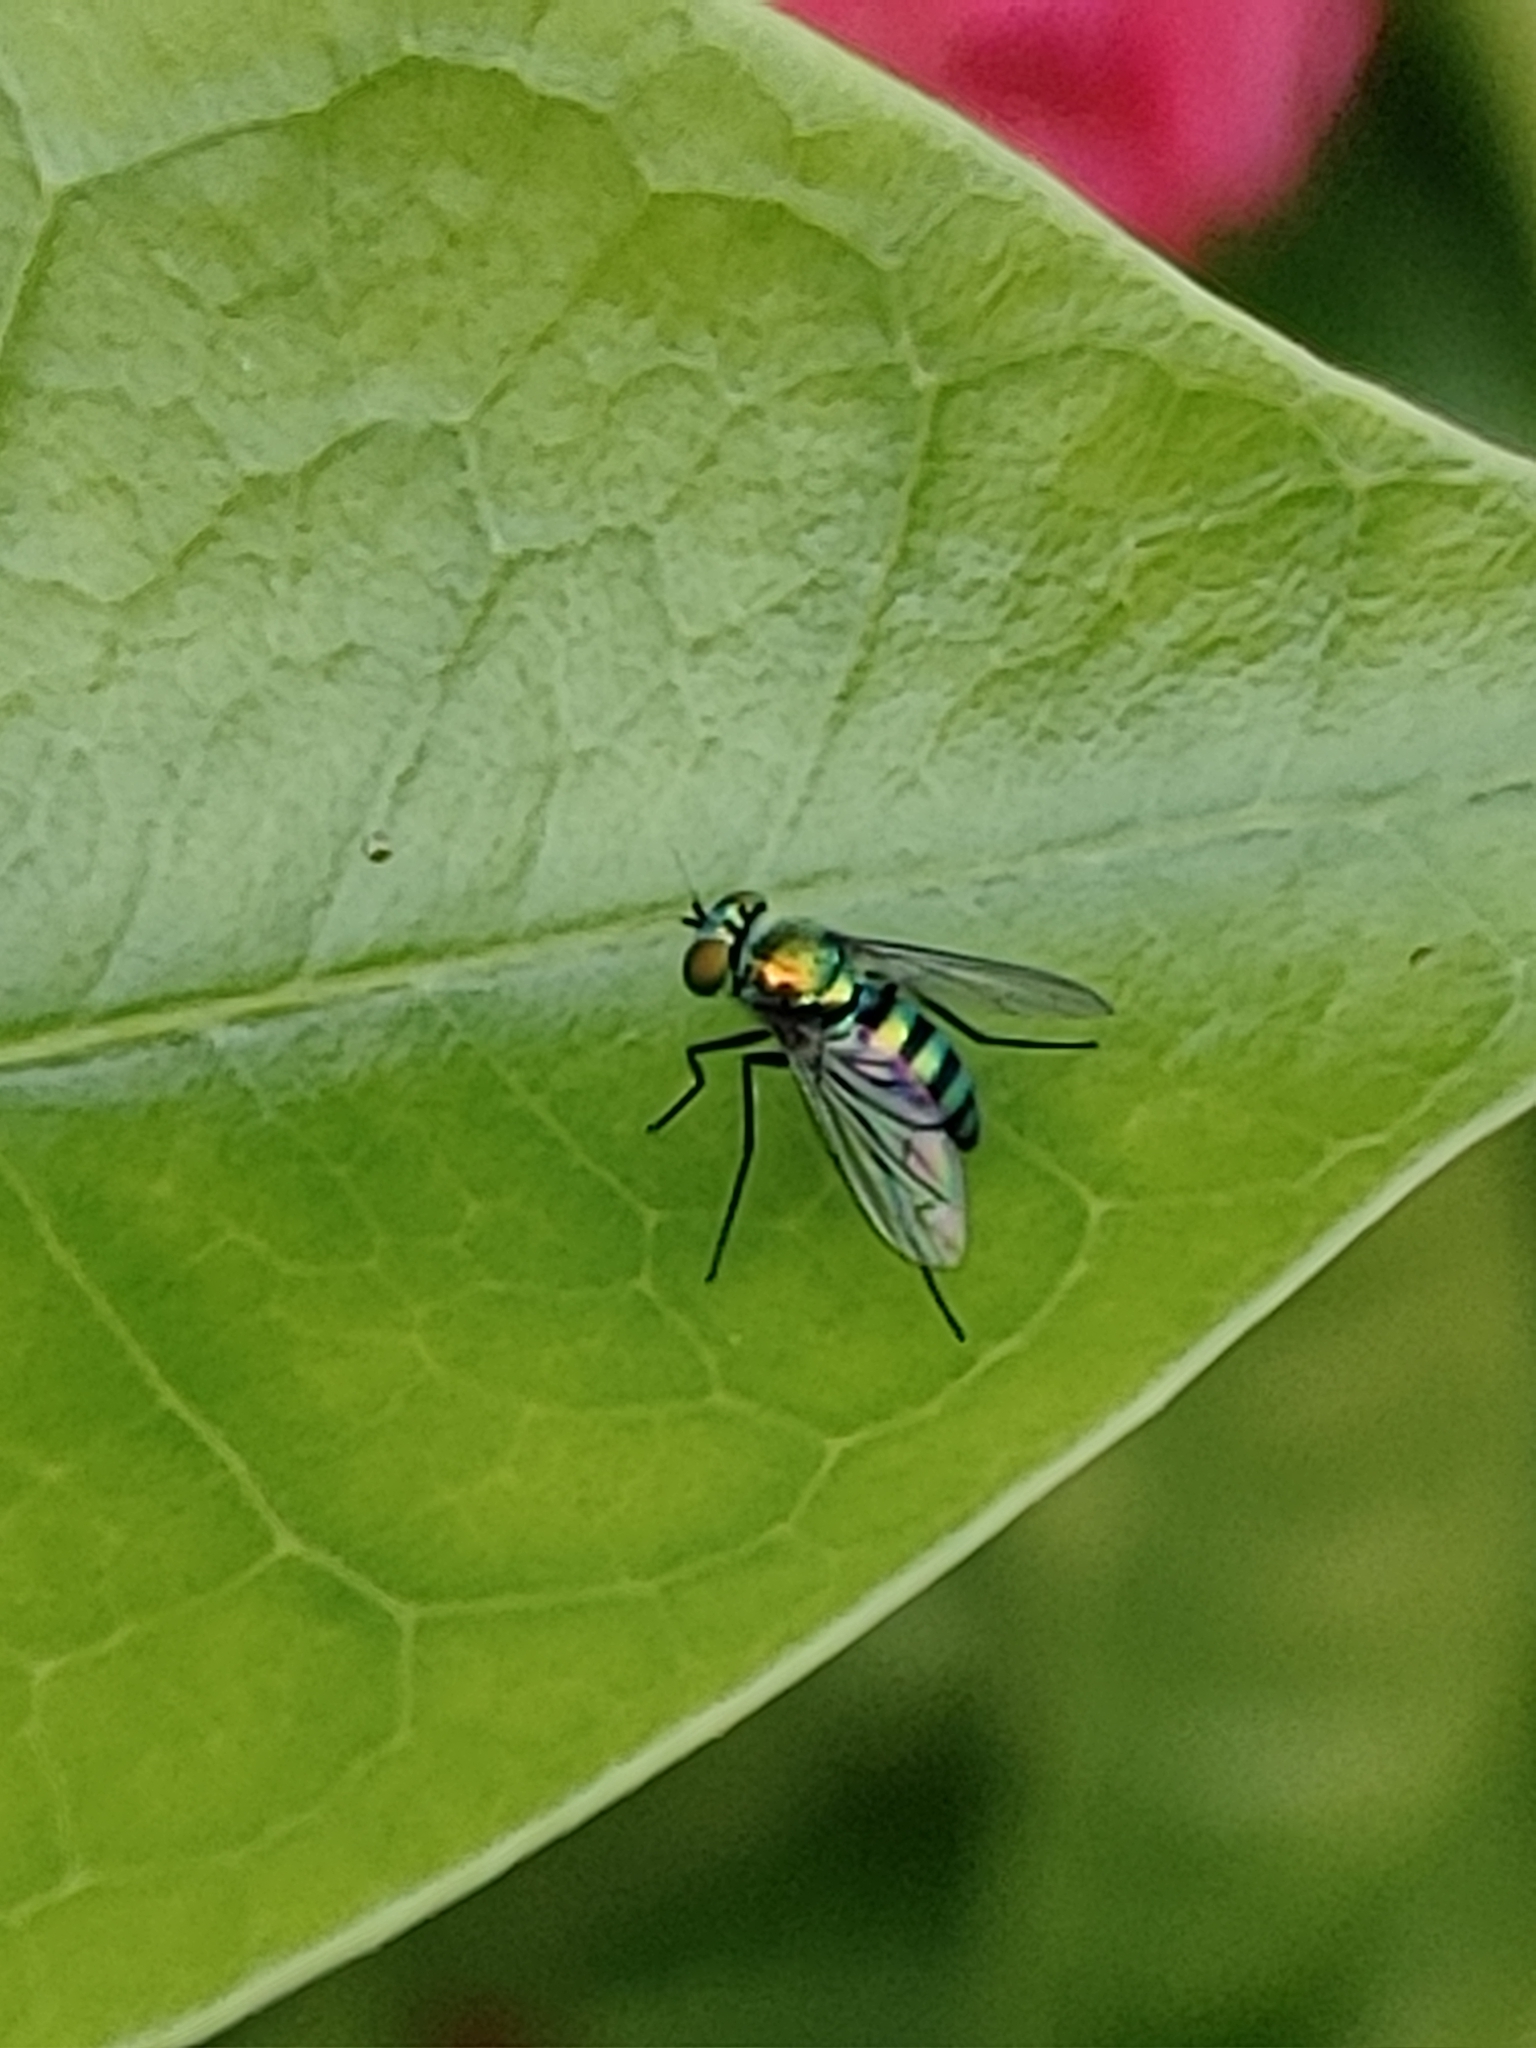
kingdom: Animalia
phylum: Arthropoda
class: Insecta
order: Diptera
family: Dolichopodidae
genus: Condylostylus
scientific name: Condylostylus mundus
